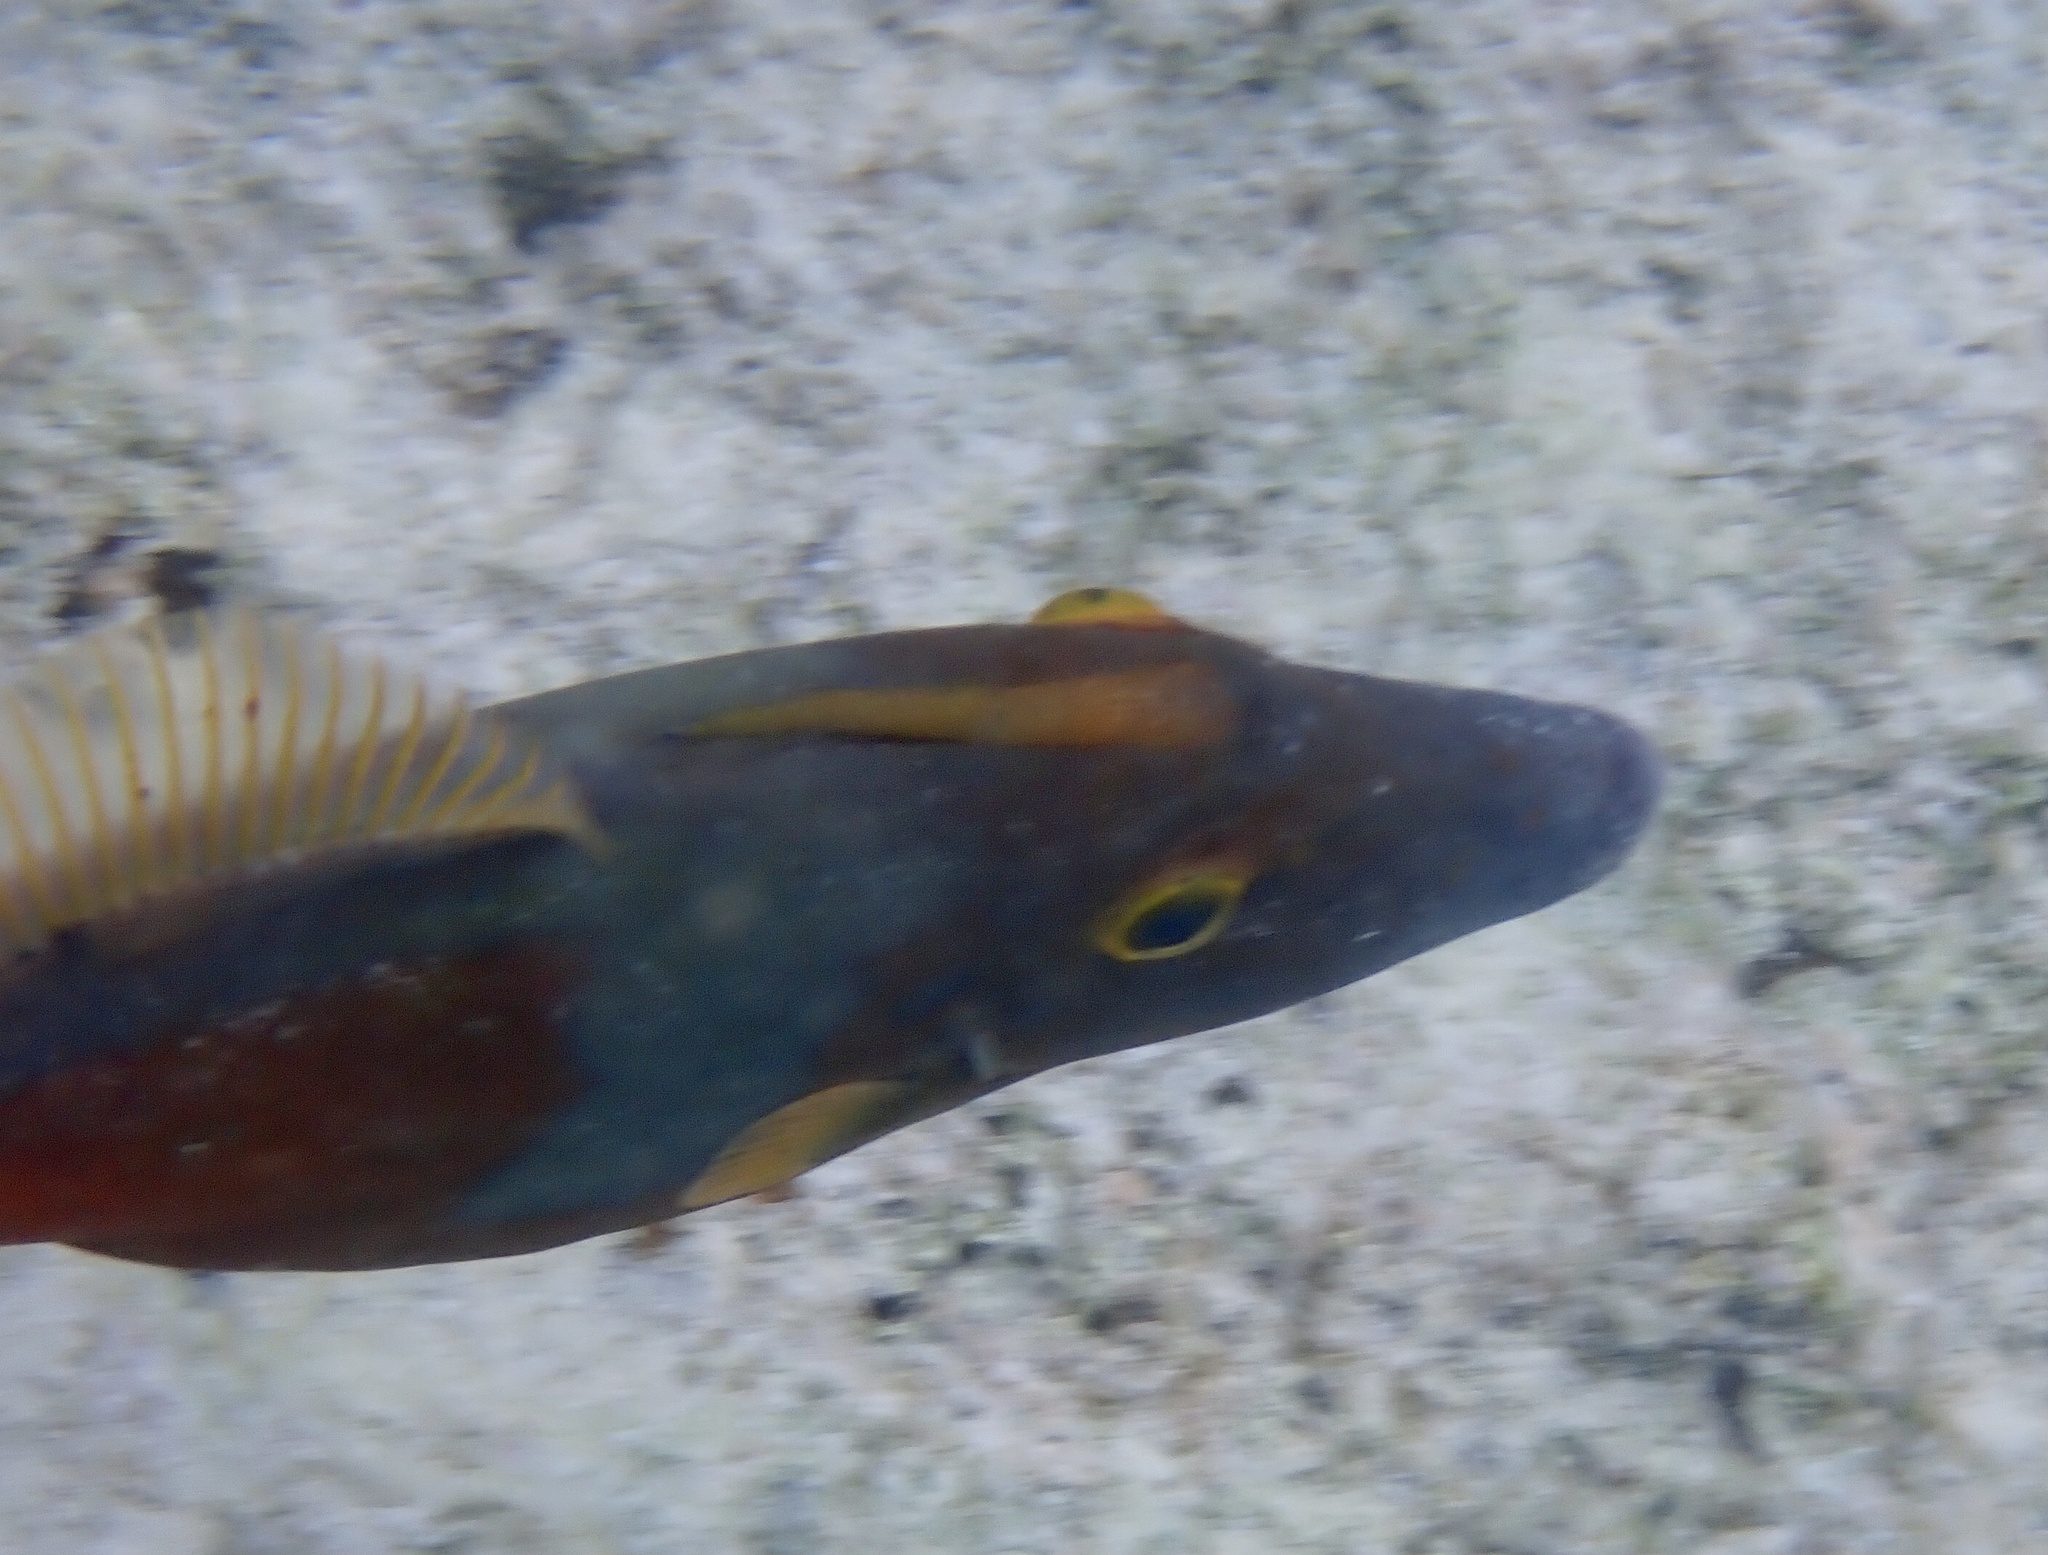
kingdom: Animalia
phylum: Chordata
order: Tetraodontiformes
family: Monacanthidae
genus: Cantherhines
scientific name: Cantherhines macrocerus
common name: Whitespotted filefish
